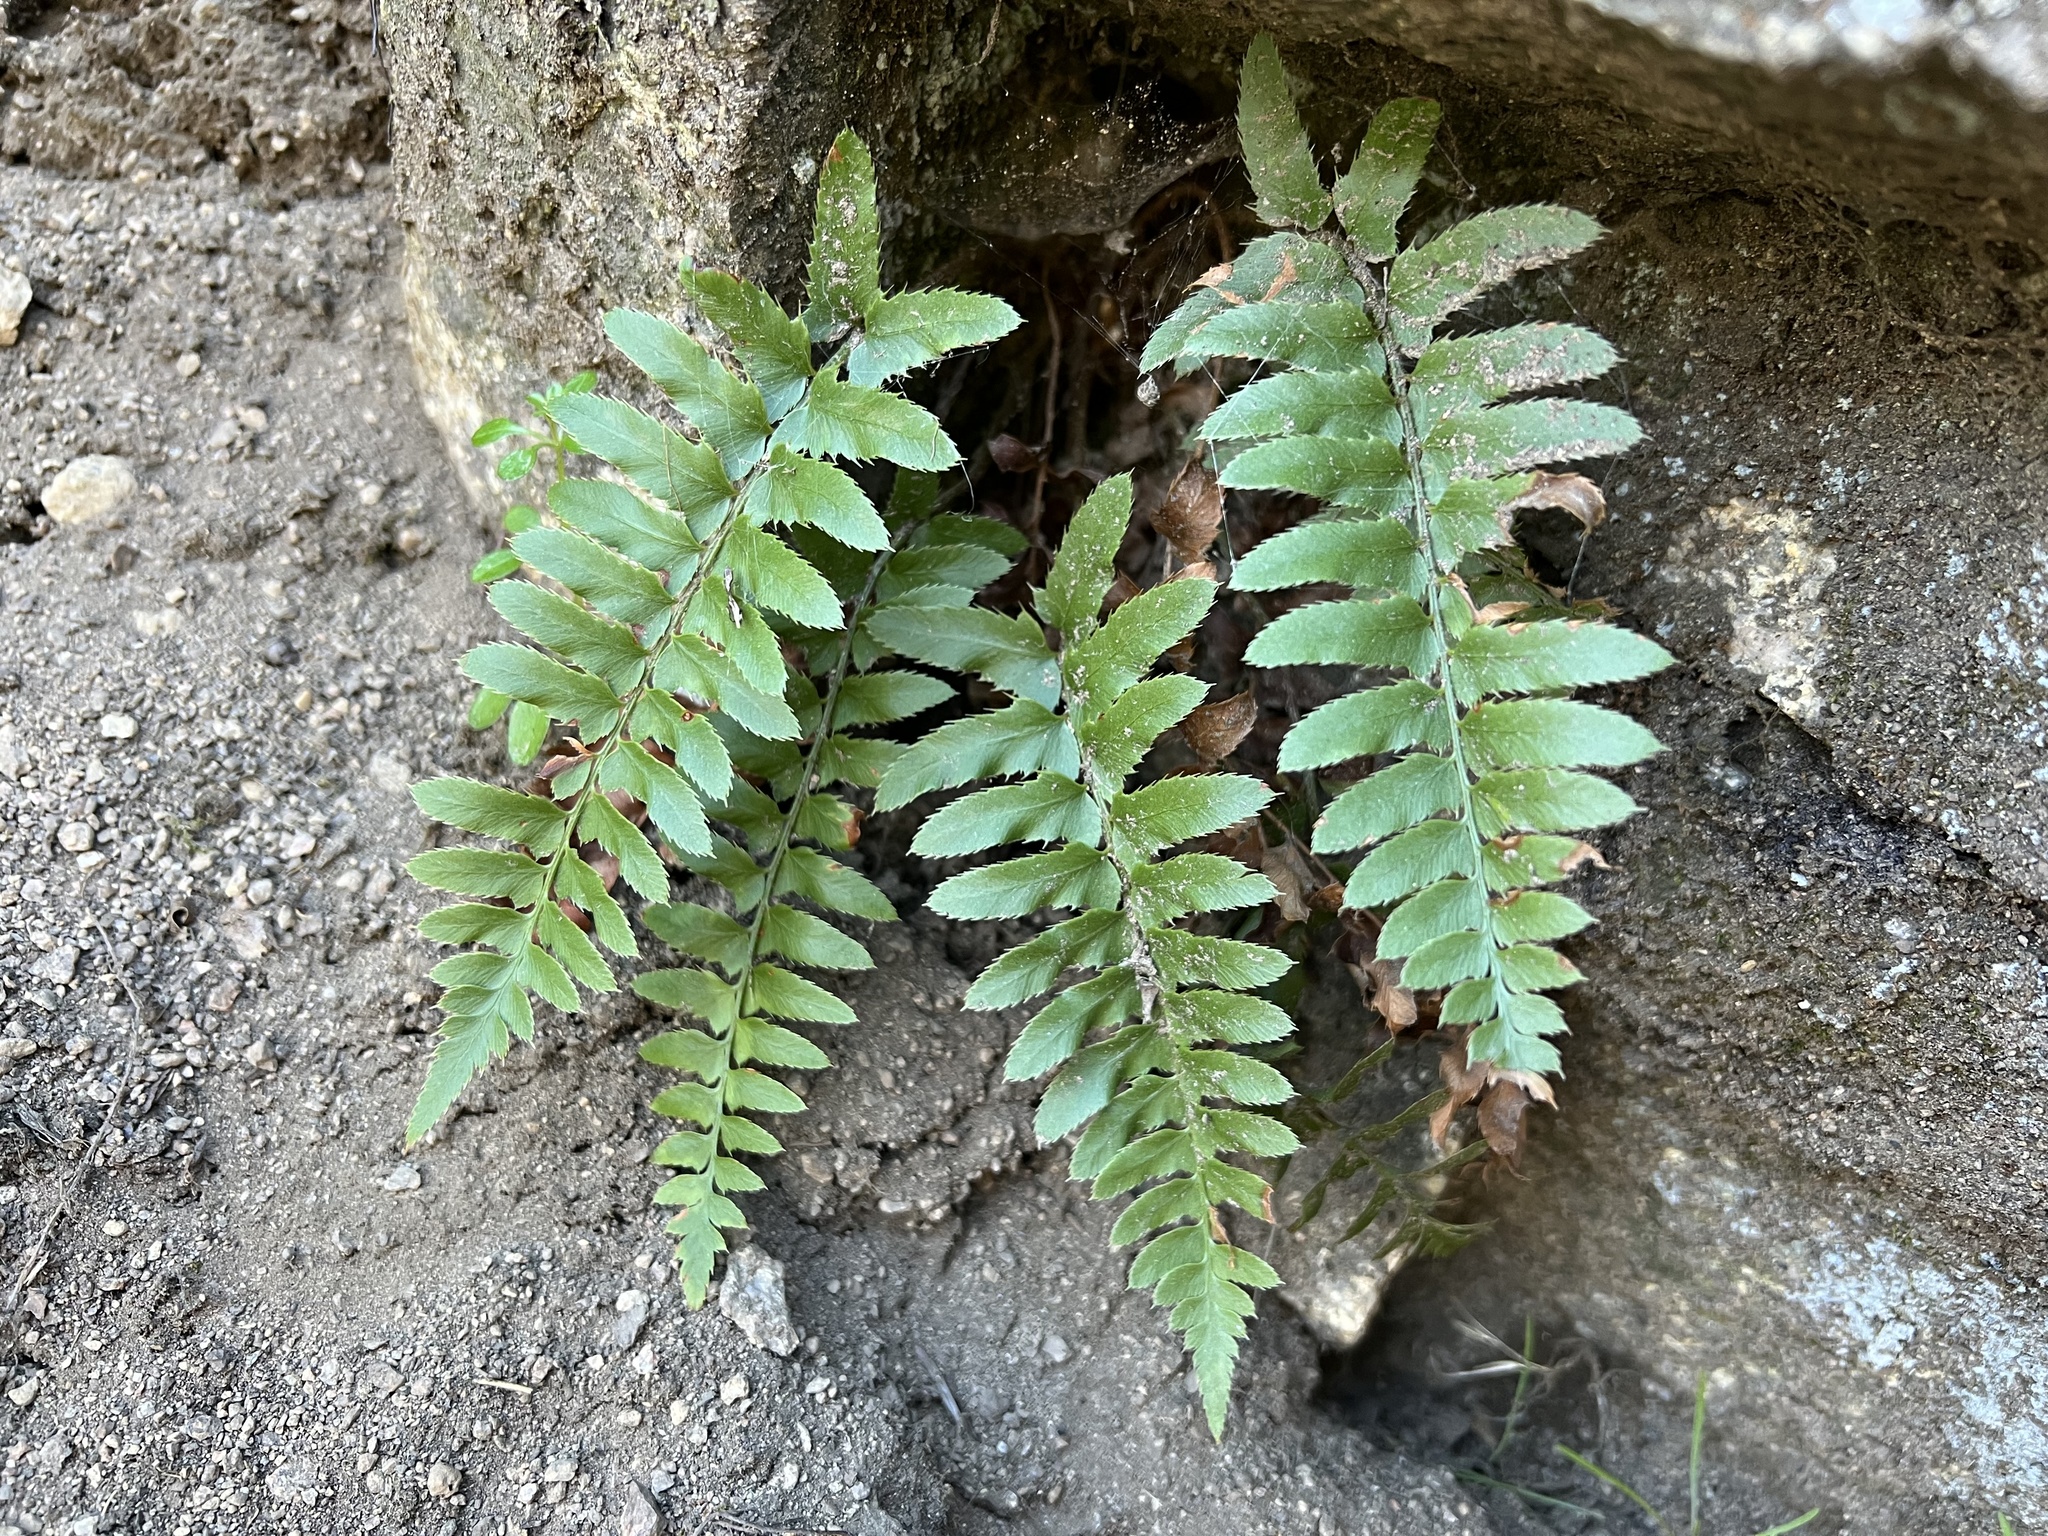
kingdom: Plantae
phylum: Tracheophyta
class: Polypodiopsida
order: Polypodiales
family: Dryopteridaceae
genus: Polystichum
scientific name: Polystichum imbricans
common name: Dwarf western sword fern
